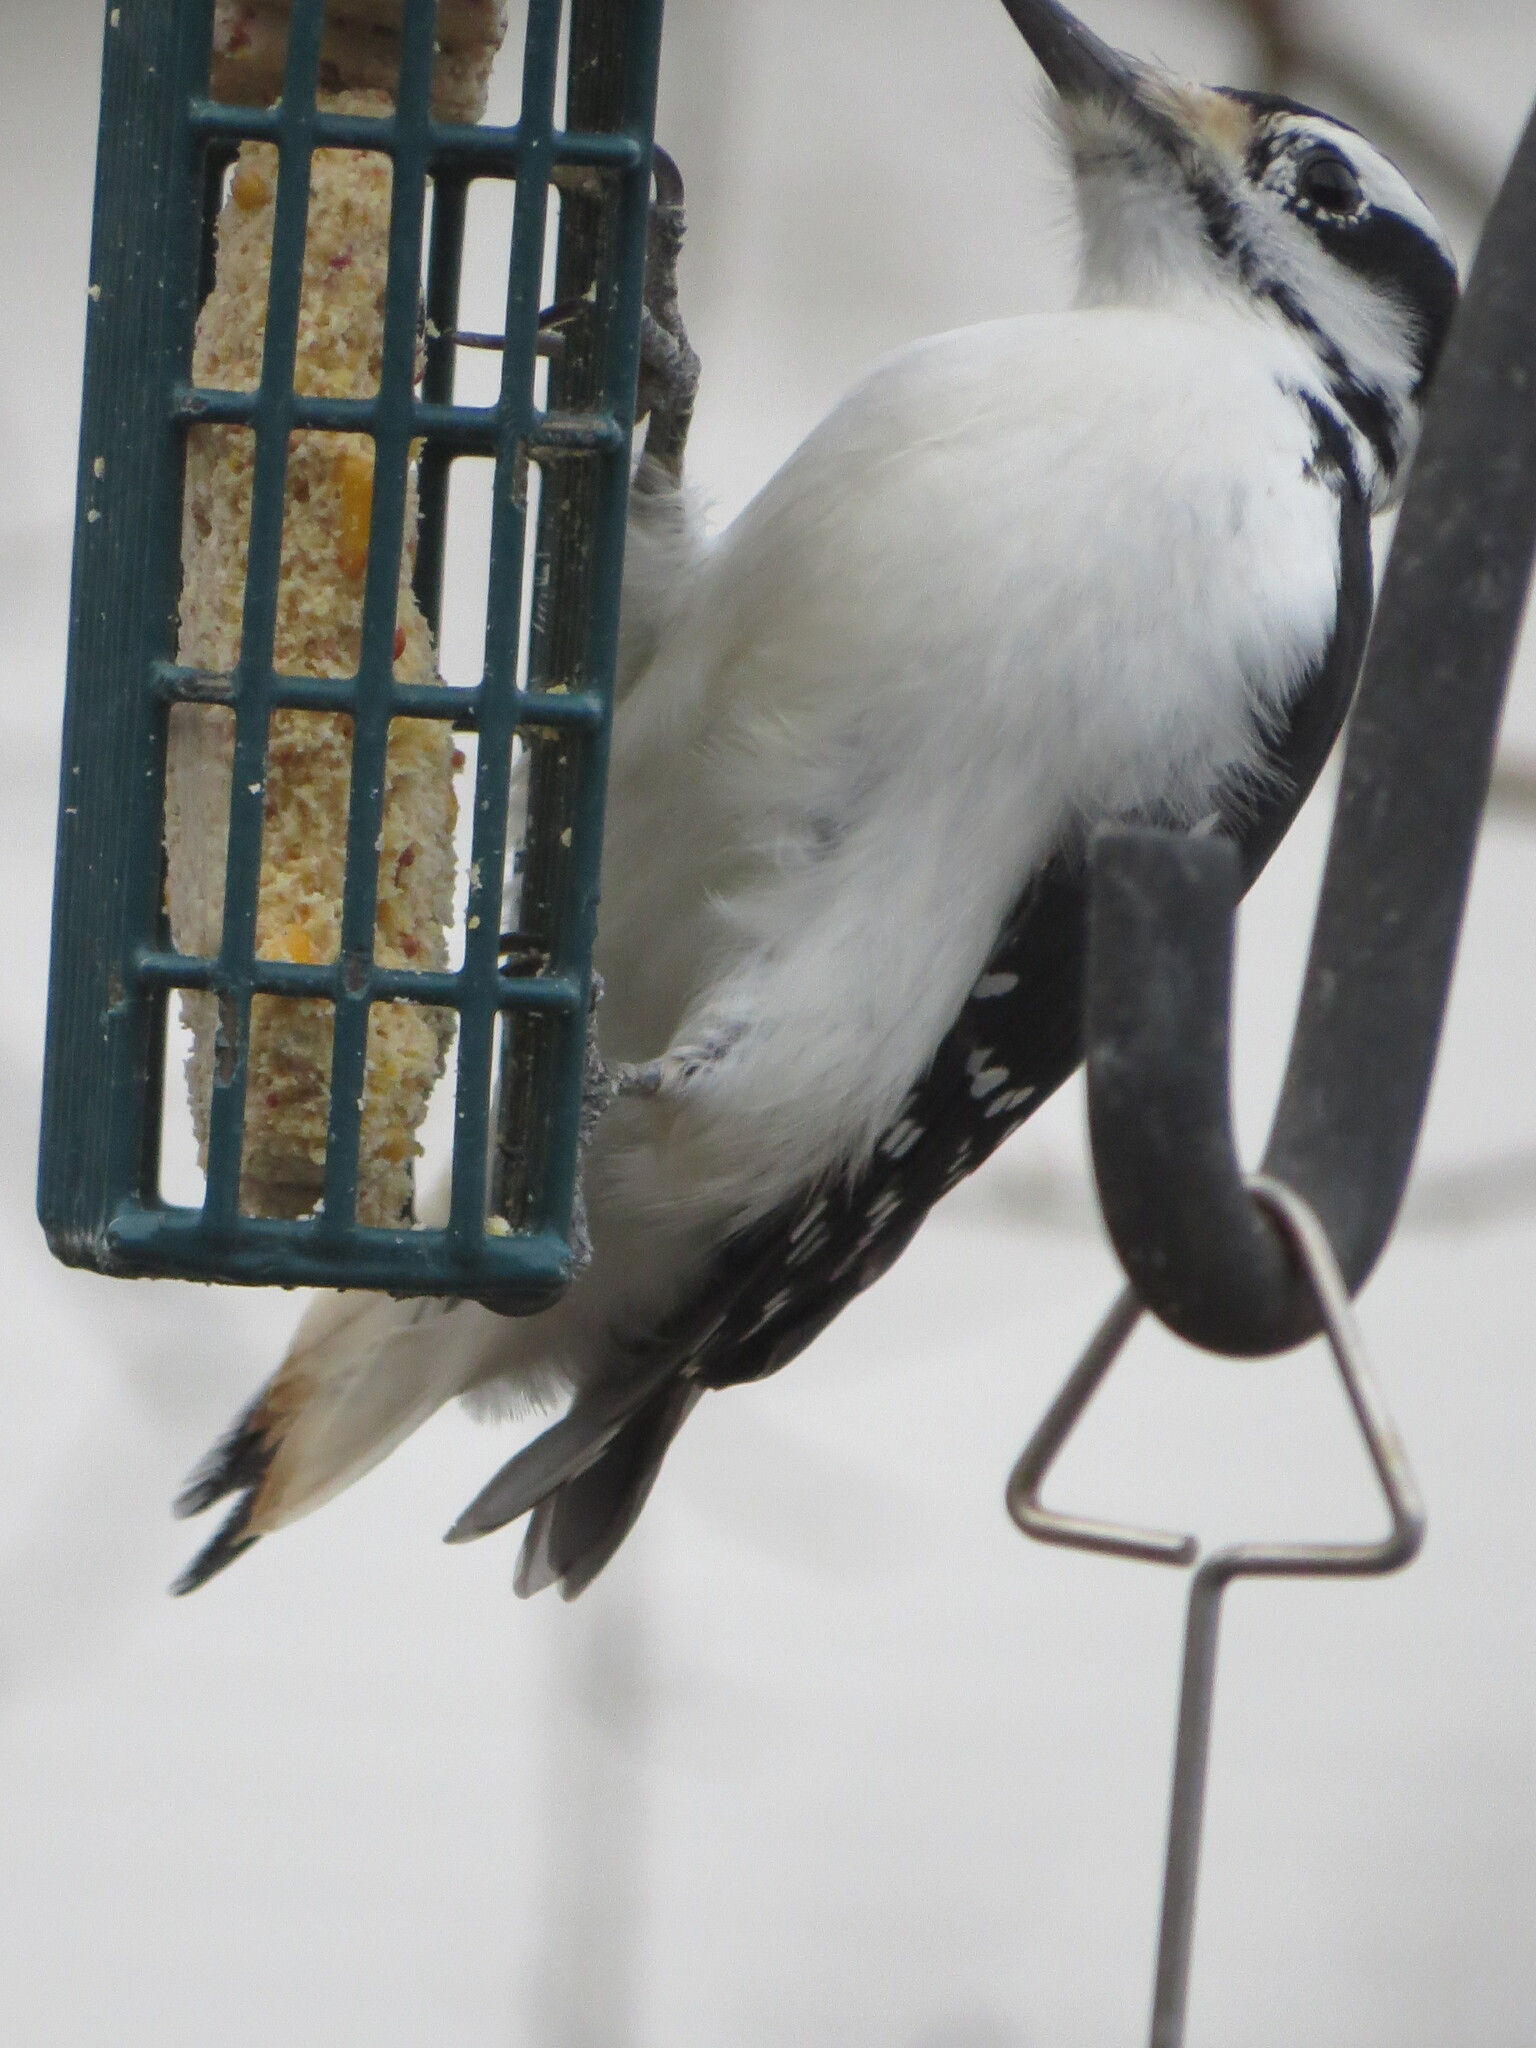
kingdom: Animalia
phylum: Chordata
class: Aves
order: Piciformes
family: Picidae
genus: Leuconotopicus
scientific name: Leuconotopicus villosus
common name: Hairy woodpecker
